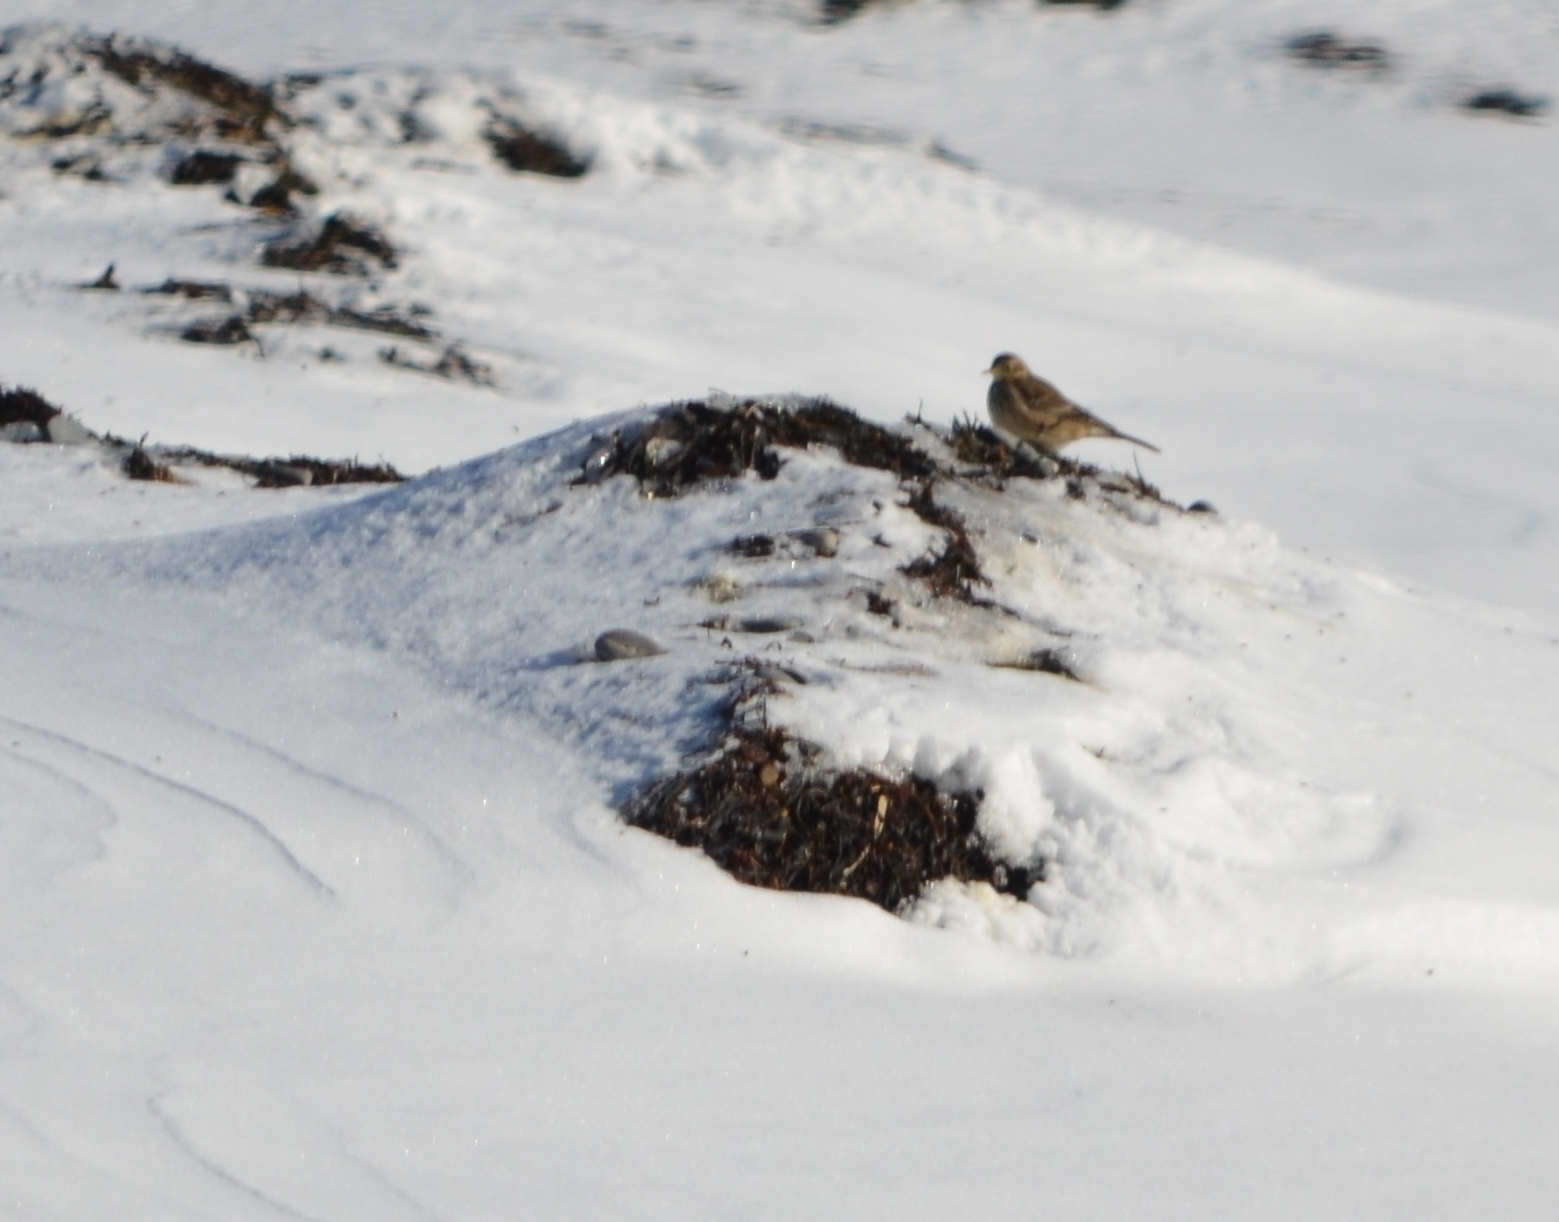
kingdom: Animalia
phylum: Chordata
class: Aves
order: Passeriformes
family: Motacillidae
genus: Anthus
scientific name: Anthus rubescens
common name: Buff-bellied pipit
